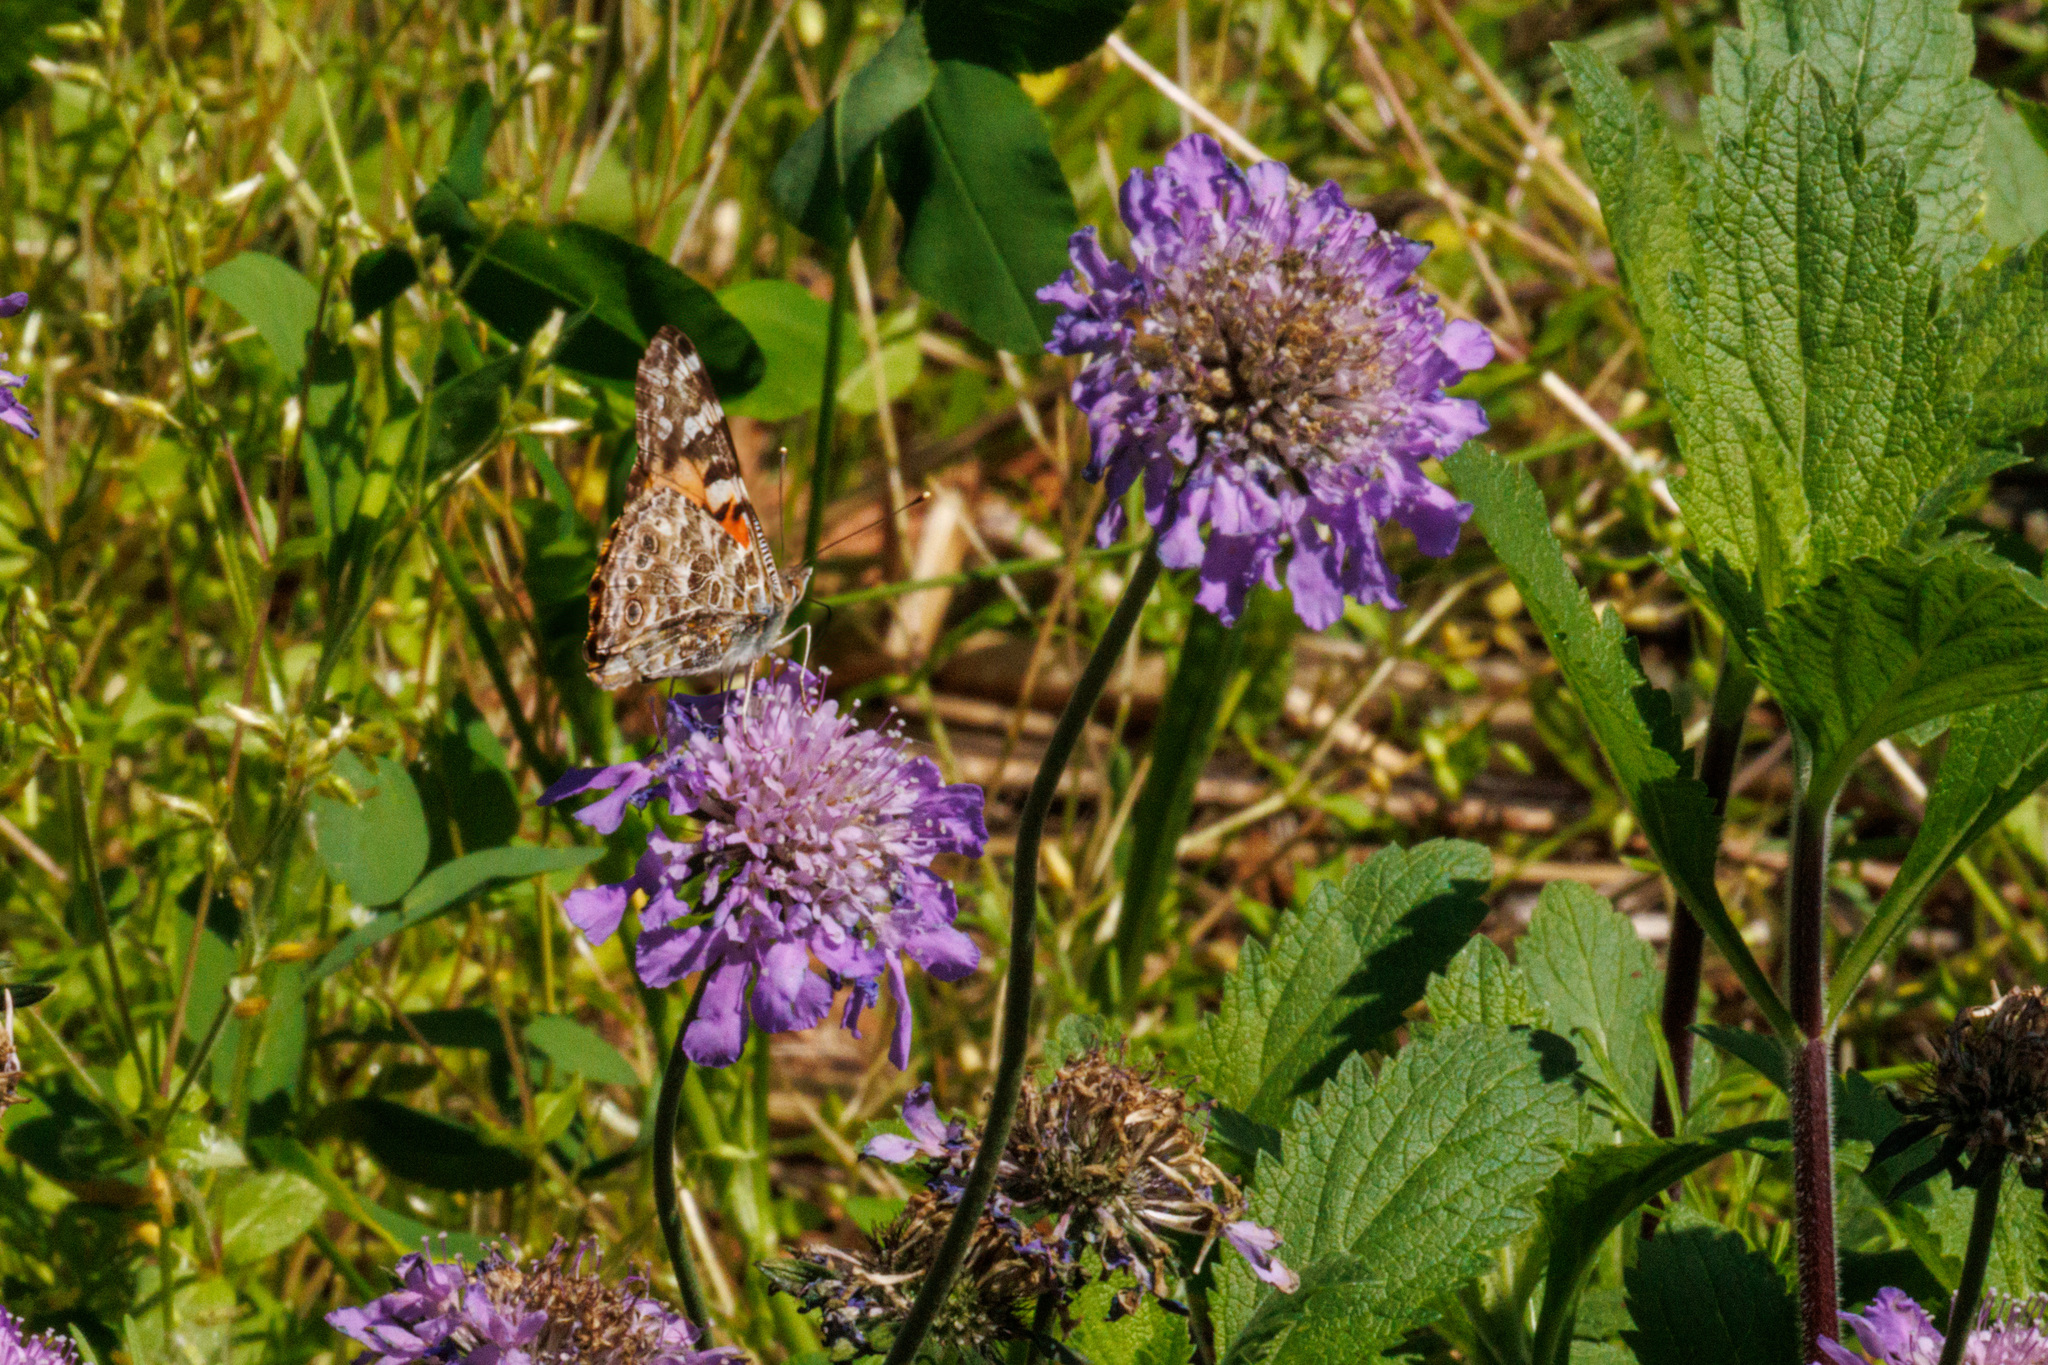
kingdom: Animalia
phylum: Arthropoda
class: Insecta
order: Lepidoptera
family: Nymphalidae
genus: Vanessa
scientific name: Vanessa cardui
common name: Painted lady
